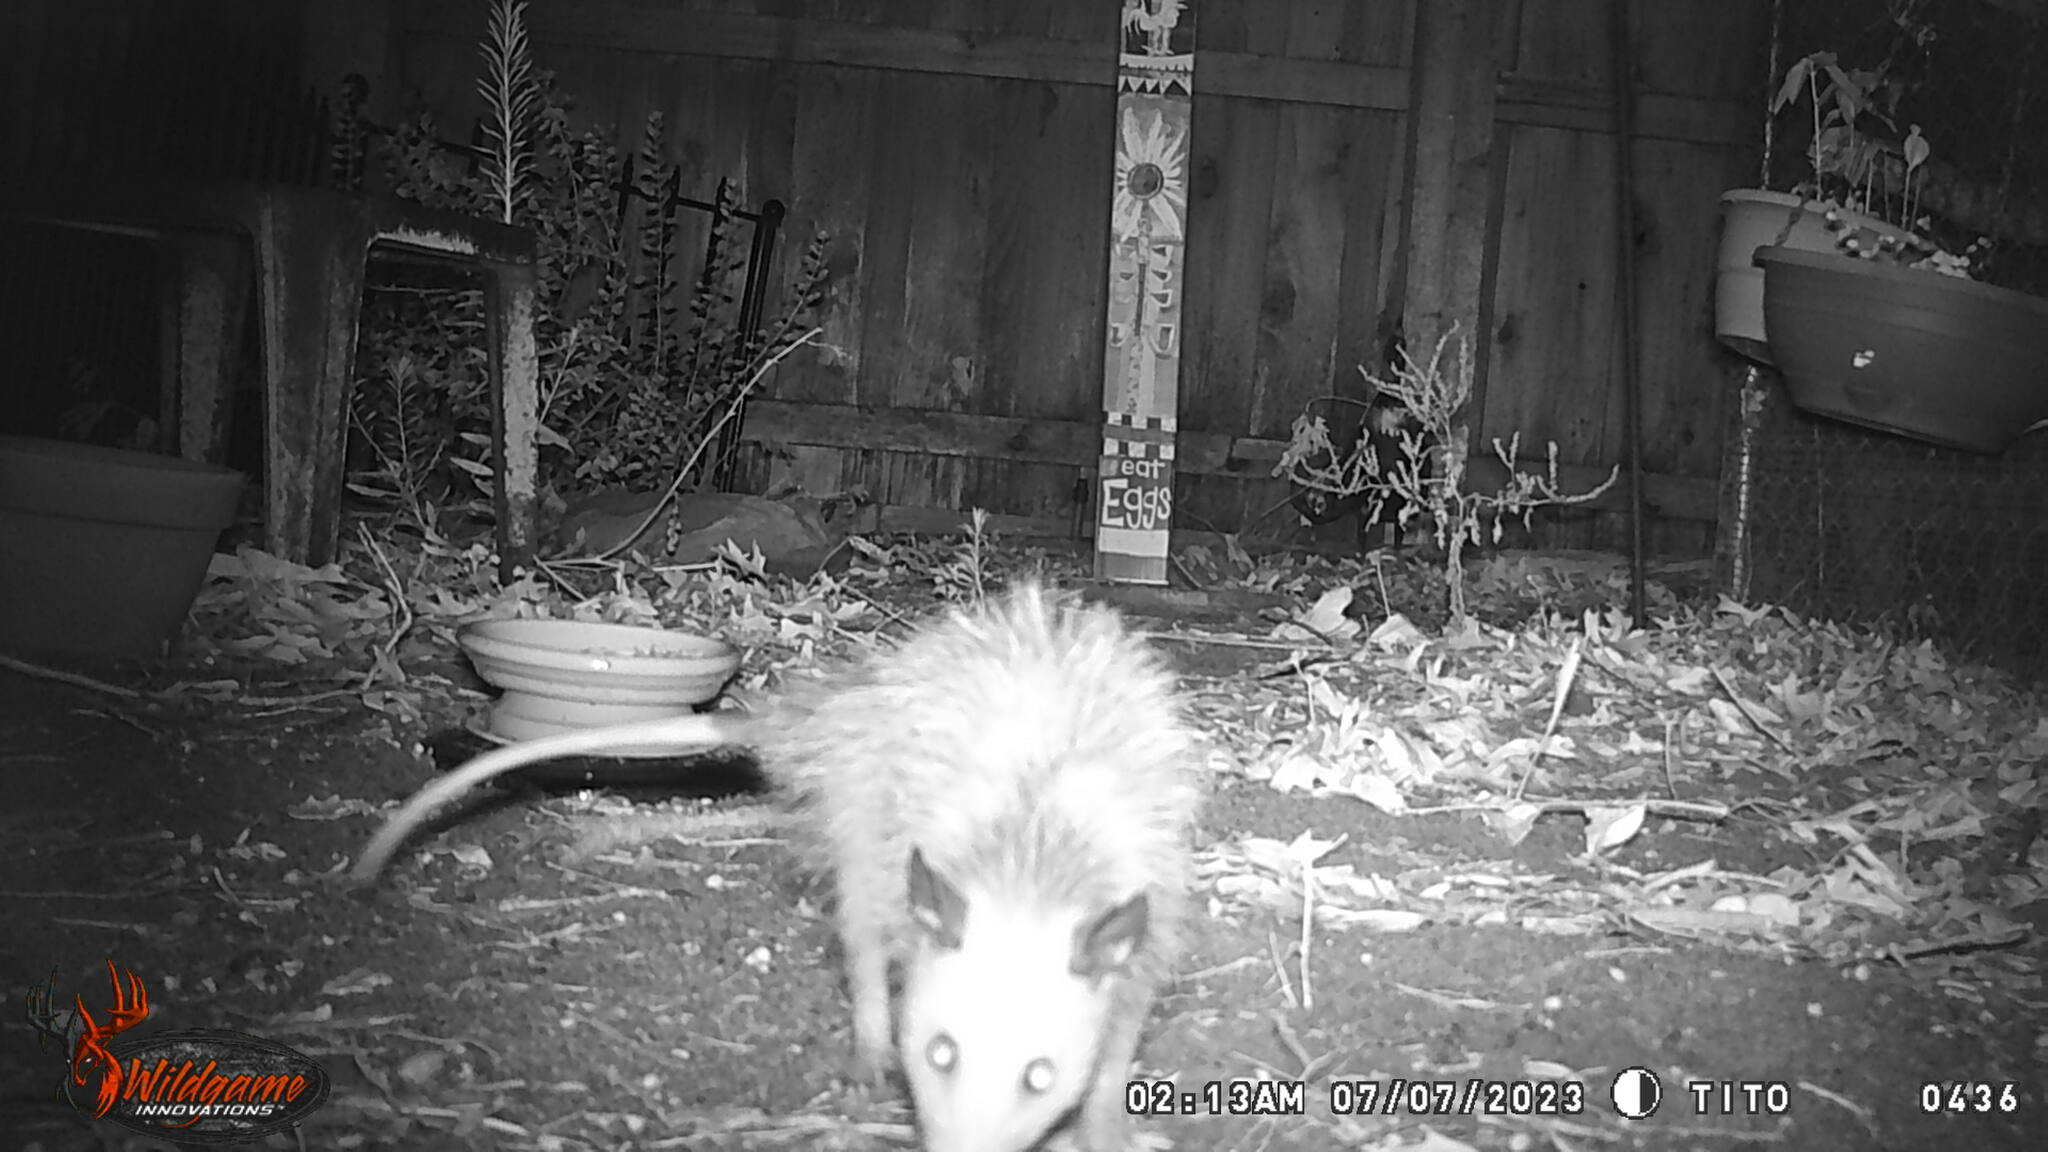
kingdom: Animalia
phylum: Chordata
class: Mammalia
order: Didelphimorphia
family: Didelphidae
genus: Didelphis
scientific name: Didelphis virginiana
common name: Virginia opossum
